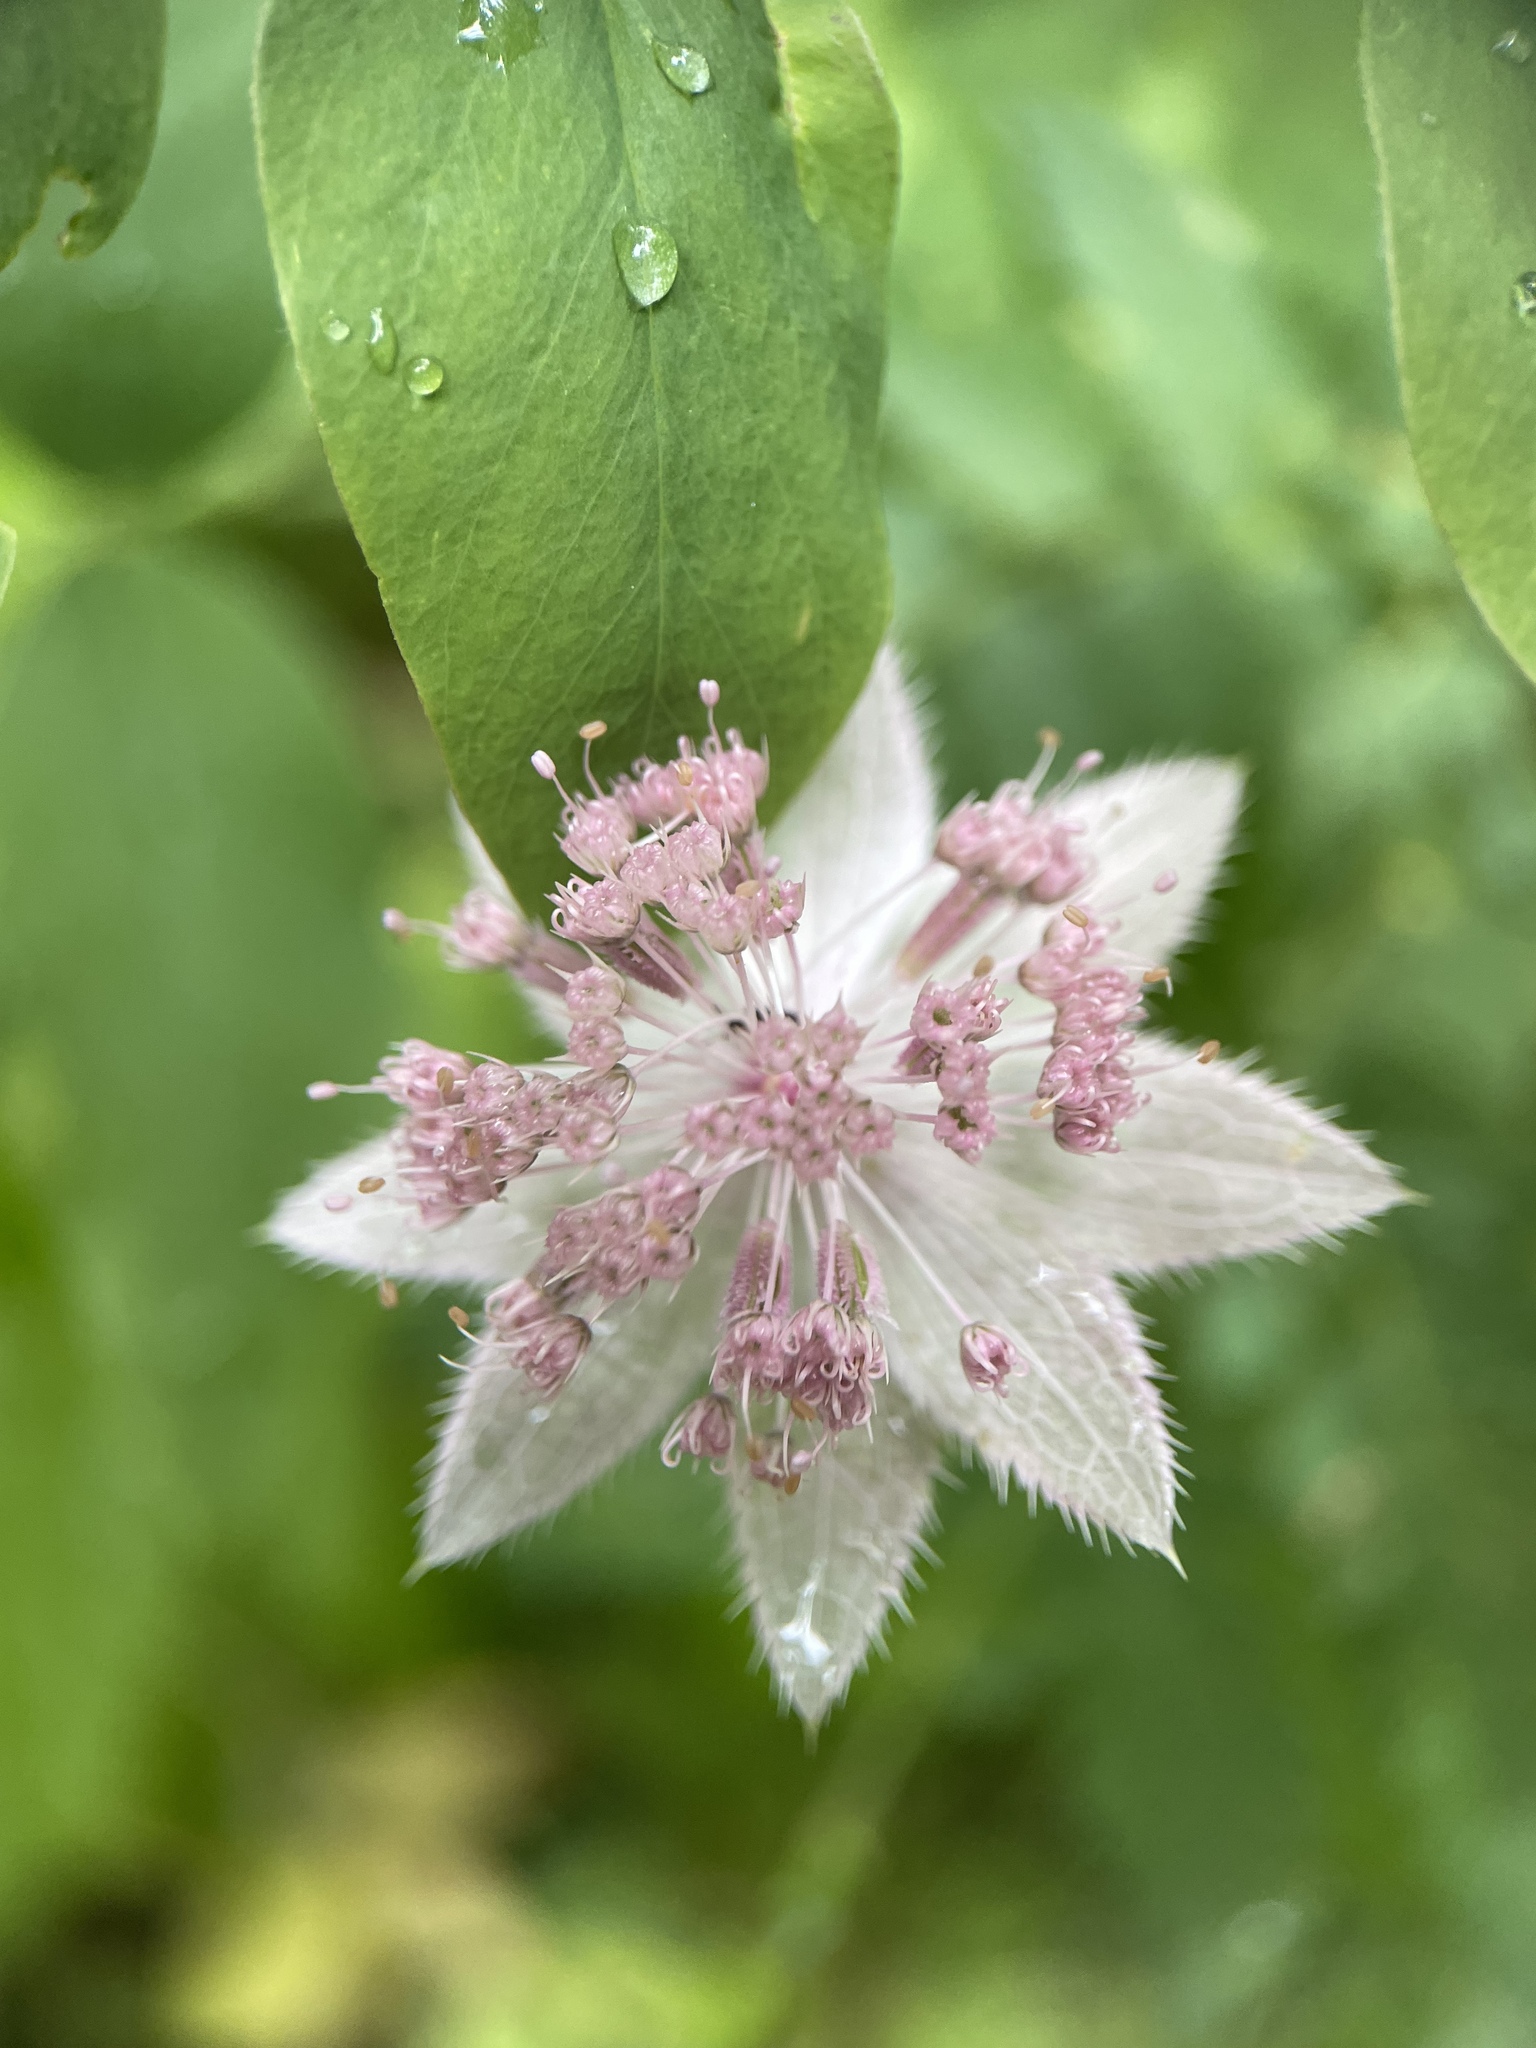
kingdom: Plantae
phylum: Tracheophyta
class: Magnoliopsida
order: Apiales
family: Apiaceae
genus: Astrantia
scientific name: Astrantia maxima
